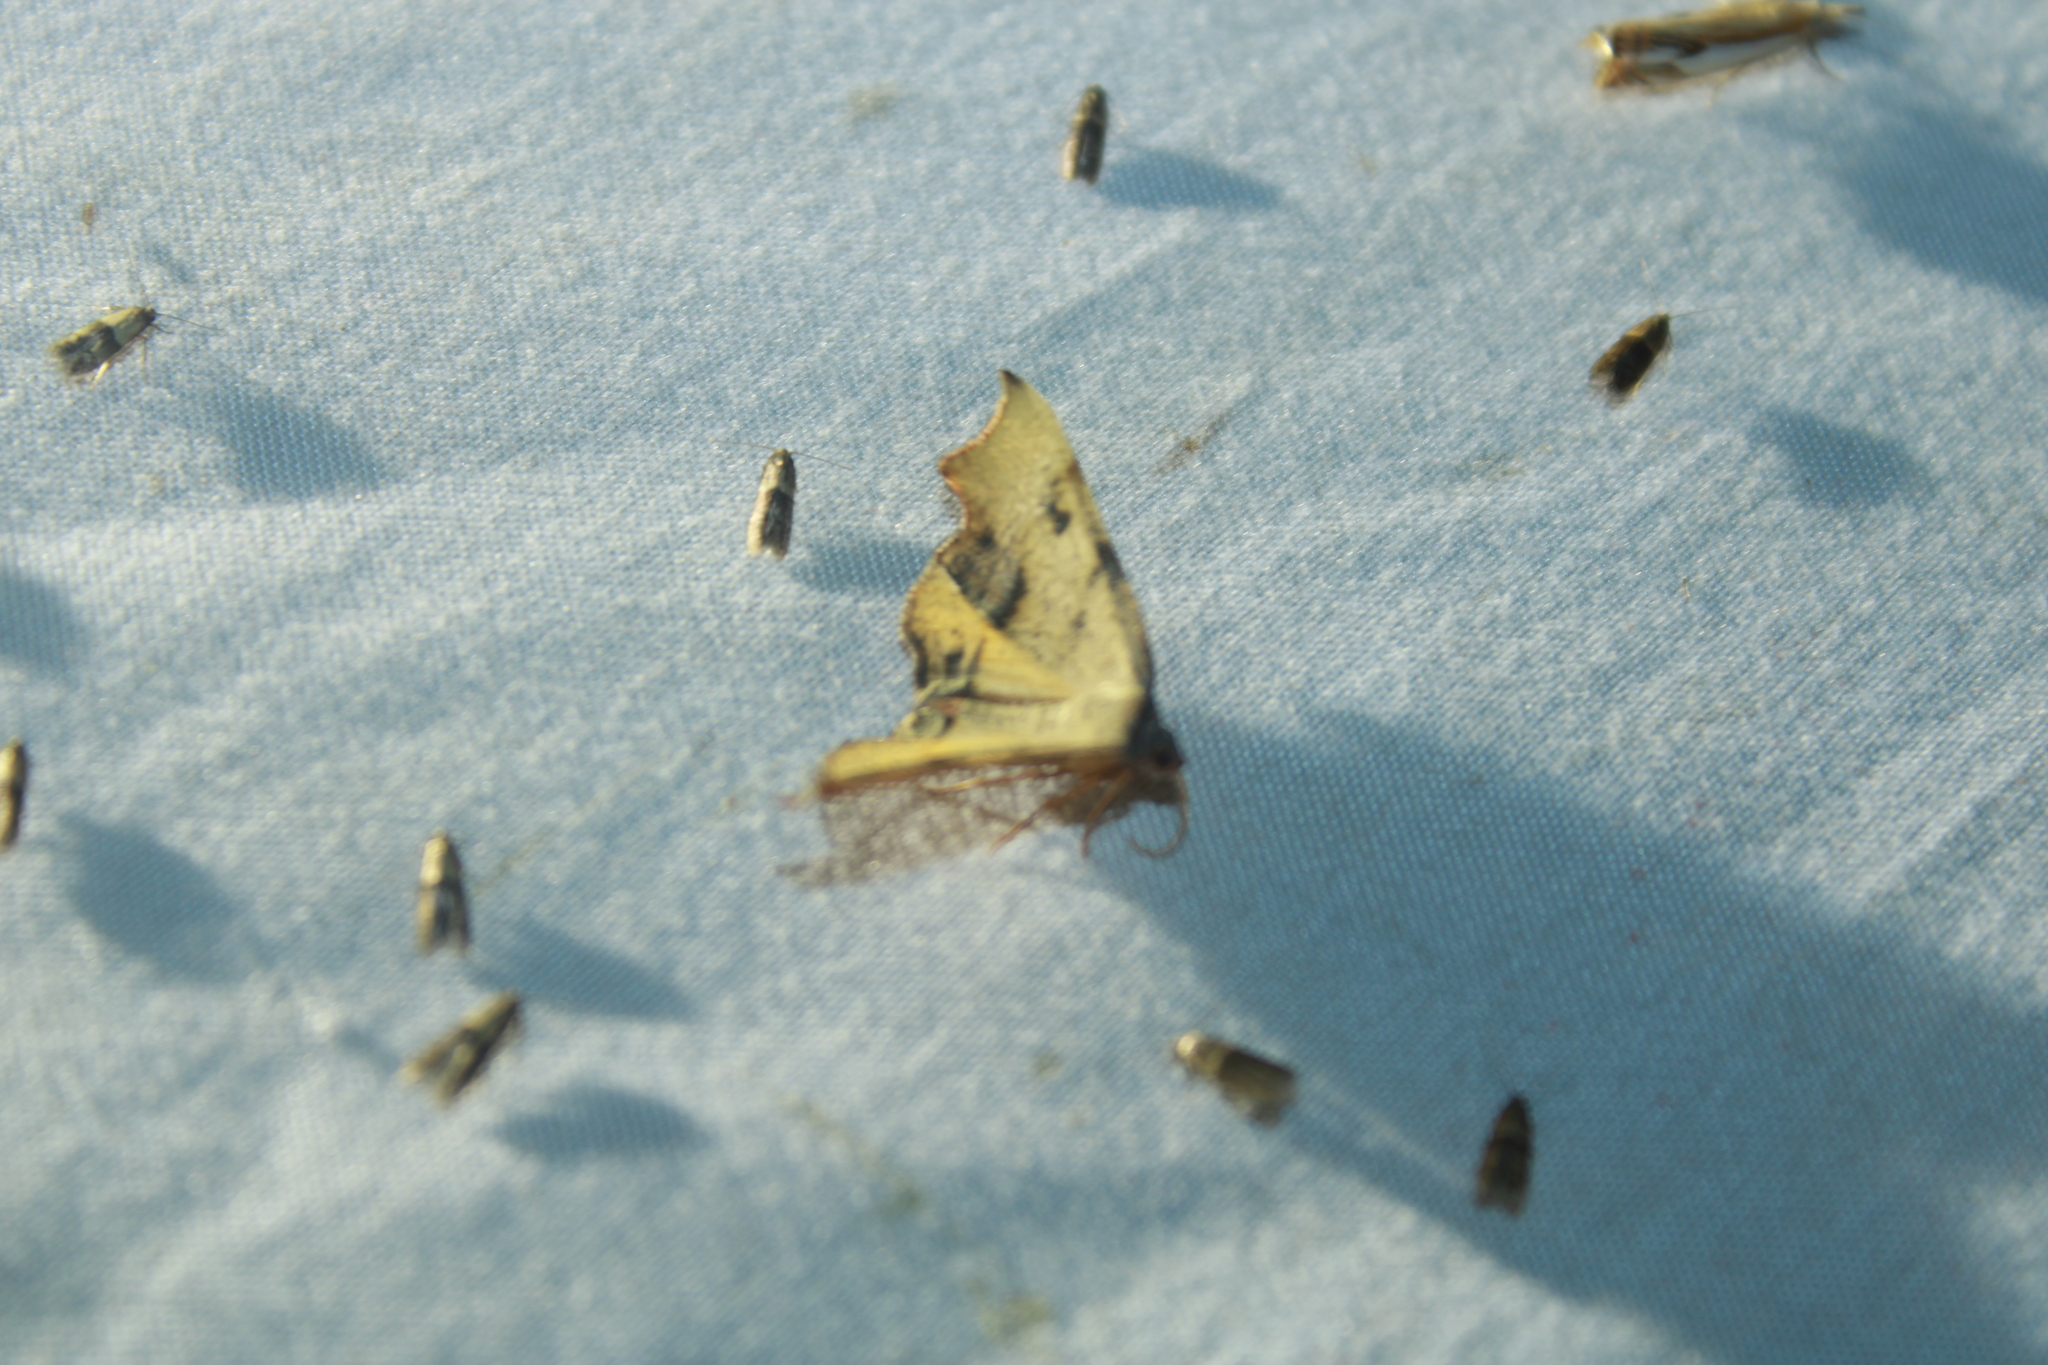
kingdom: Animalia
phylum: Arthropoda
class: Insecta
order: Lepidoptera
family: Geometridae
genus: Plagodis
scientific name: Plagodis fervidaria
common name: Fervid plagodis
